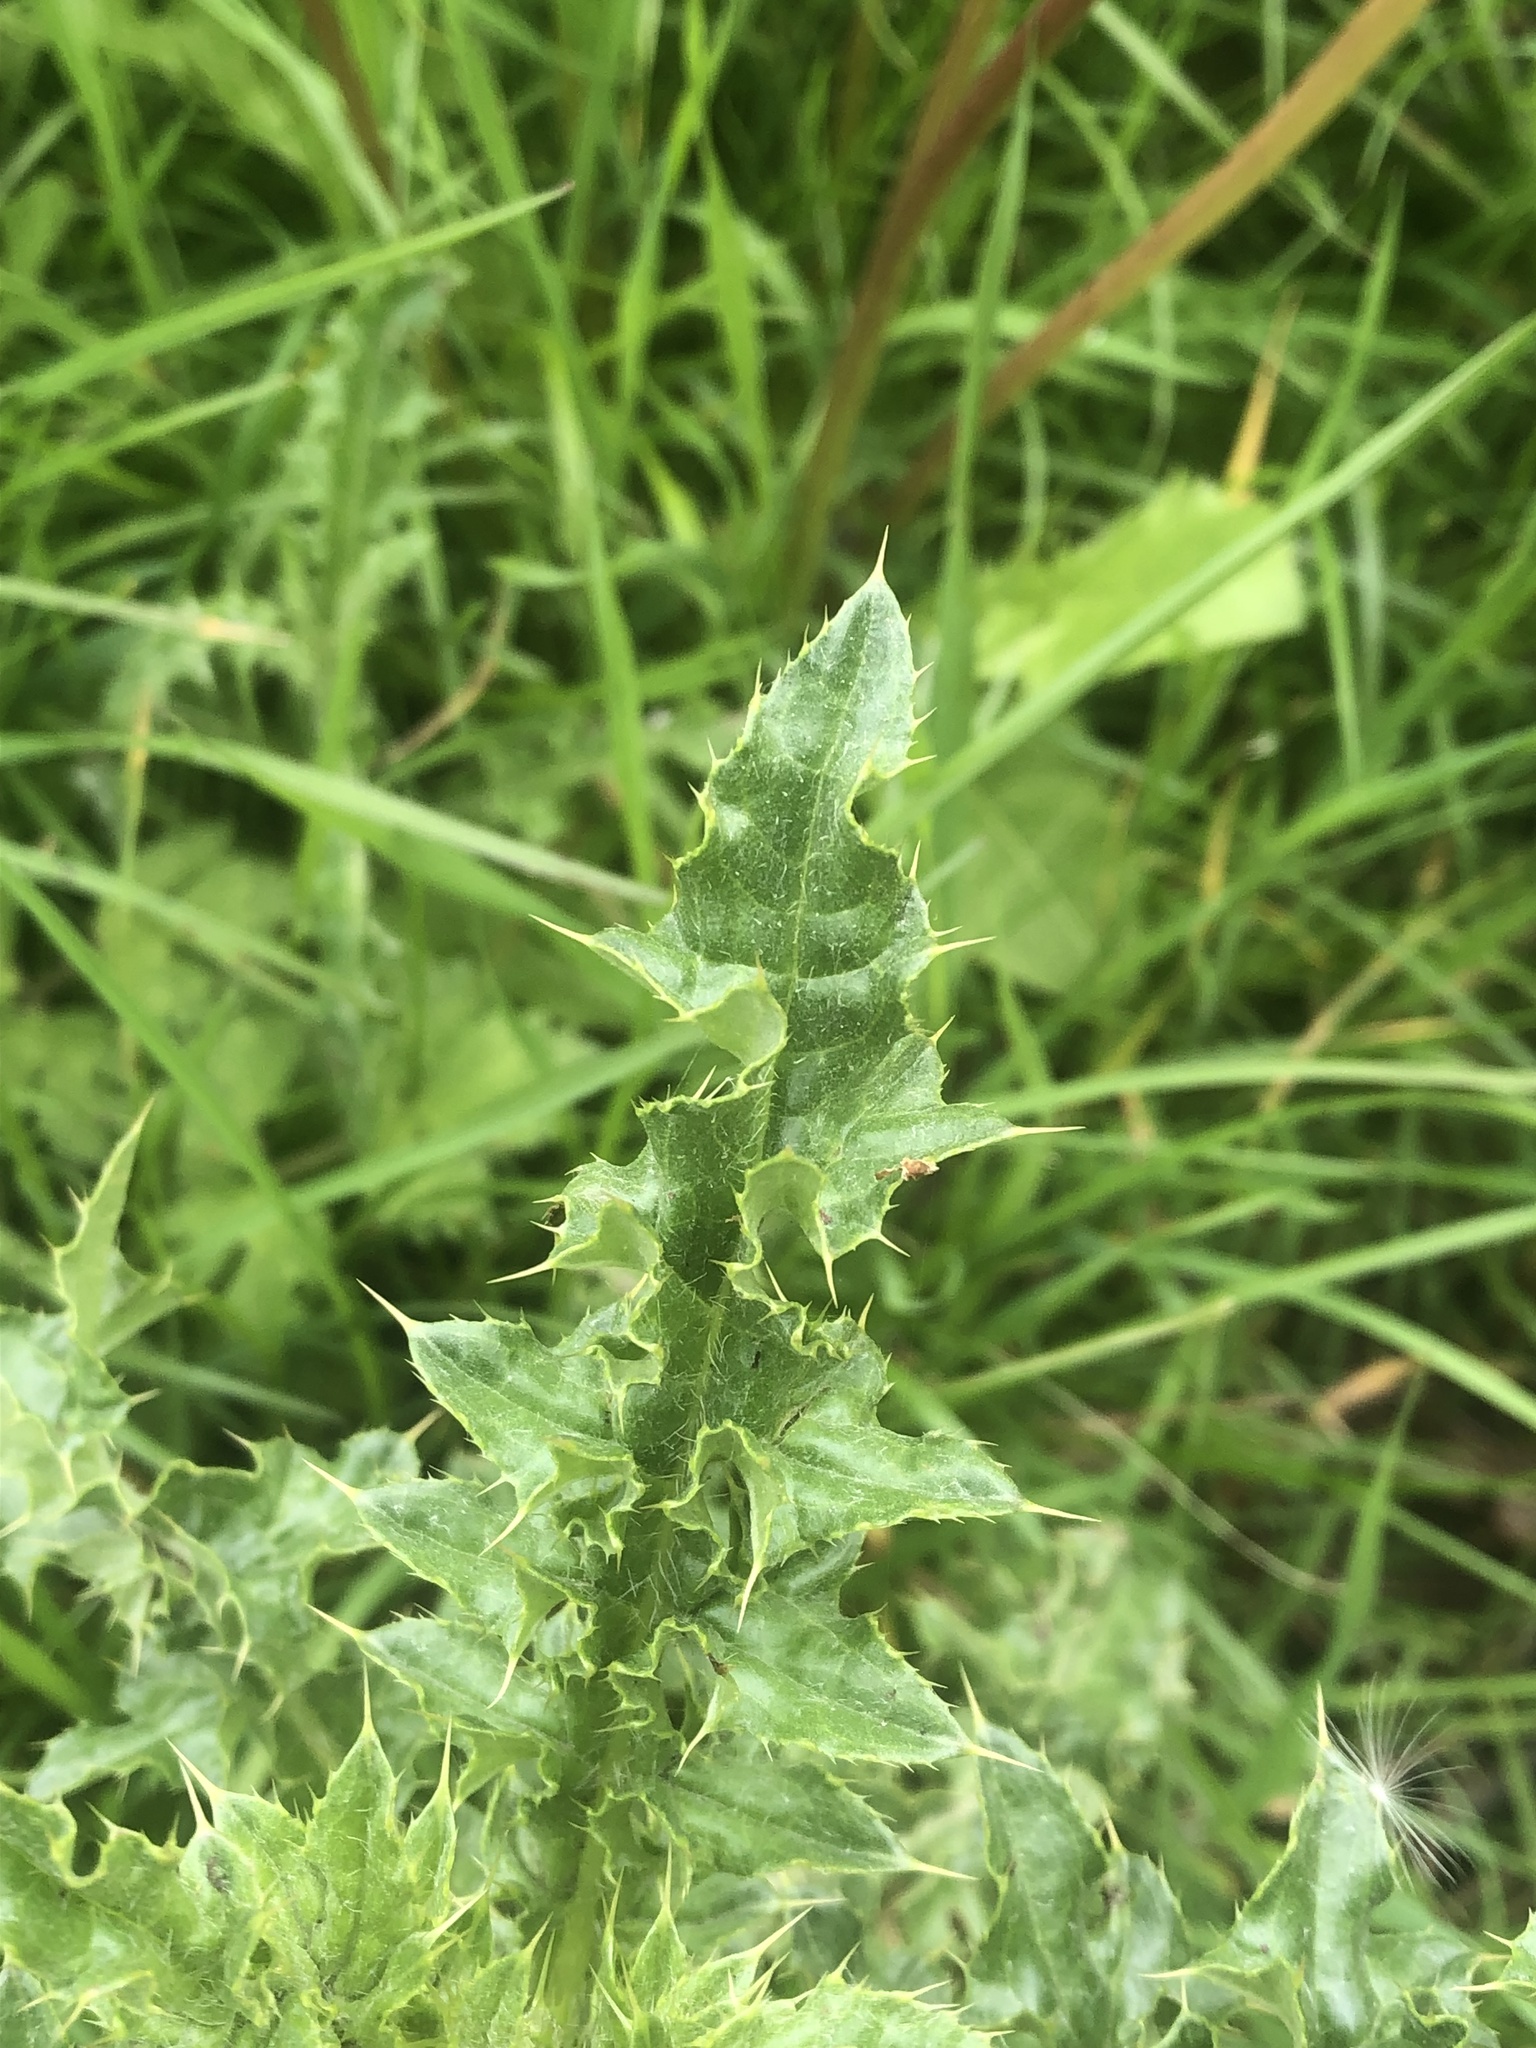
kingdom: Plantae
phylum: Tracheophyta
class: Magnoliopsida
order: Asterales
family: Asteraceae
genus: Cirsium
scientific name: Cirsium arvense
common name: Creeping thistle
